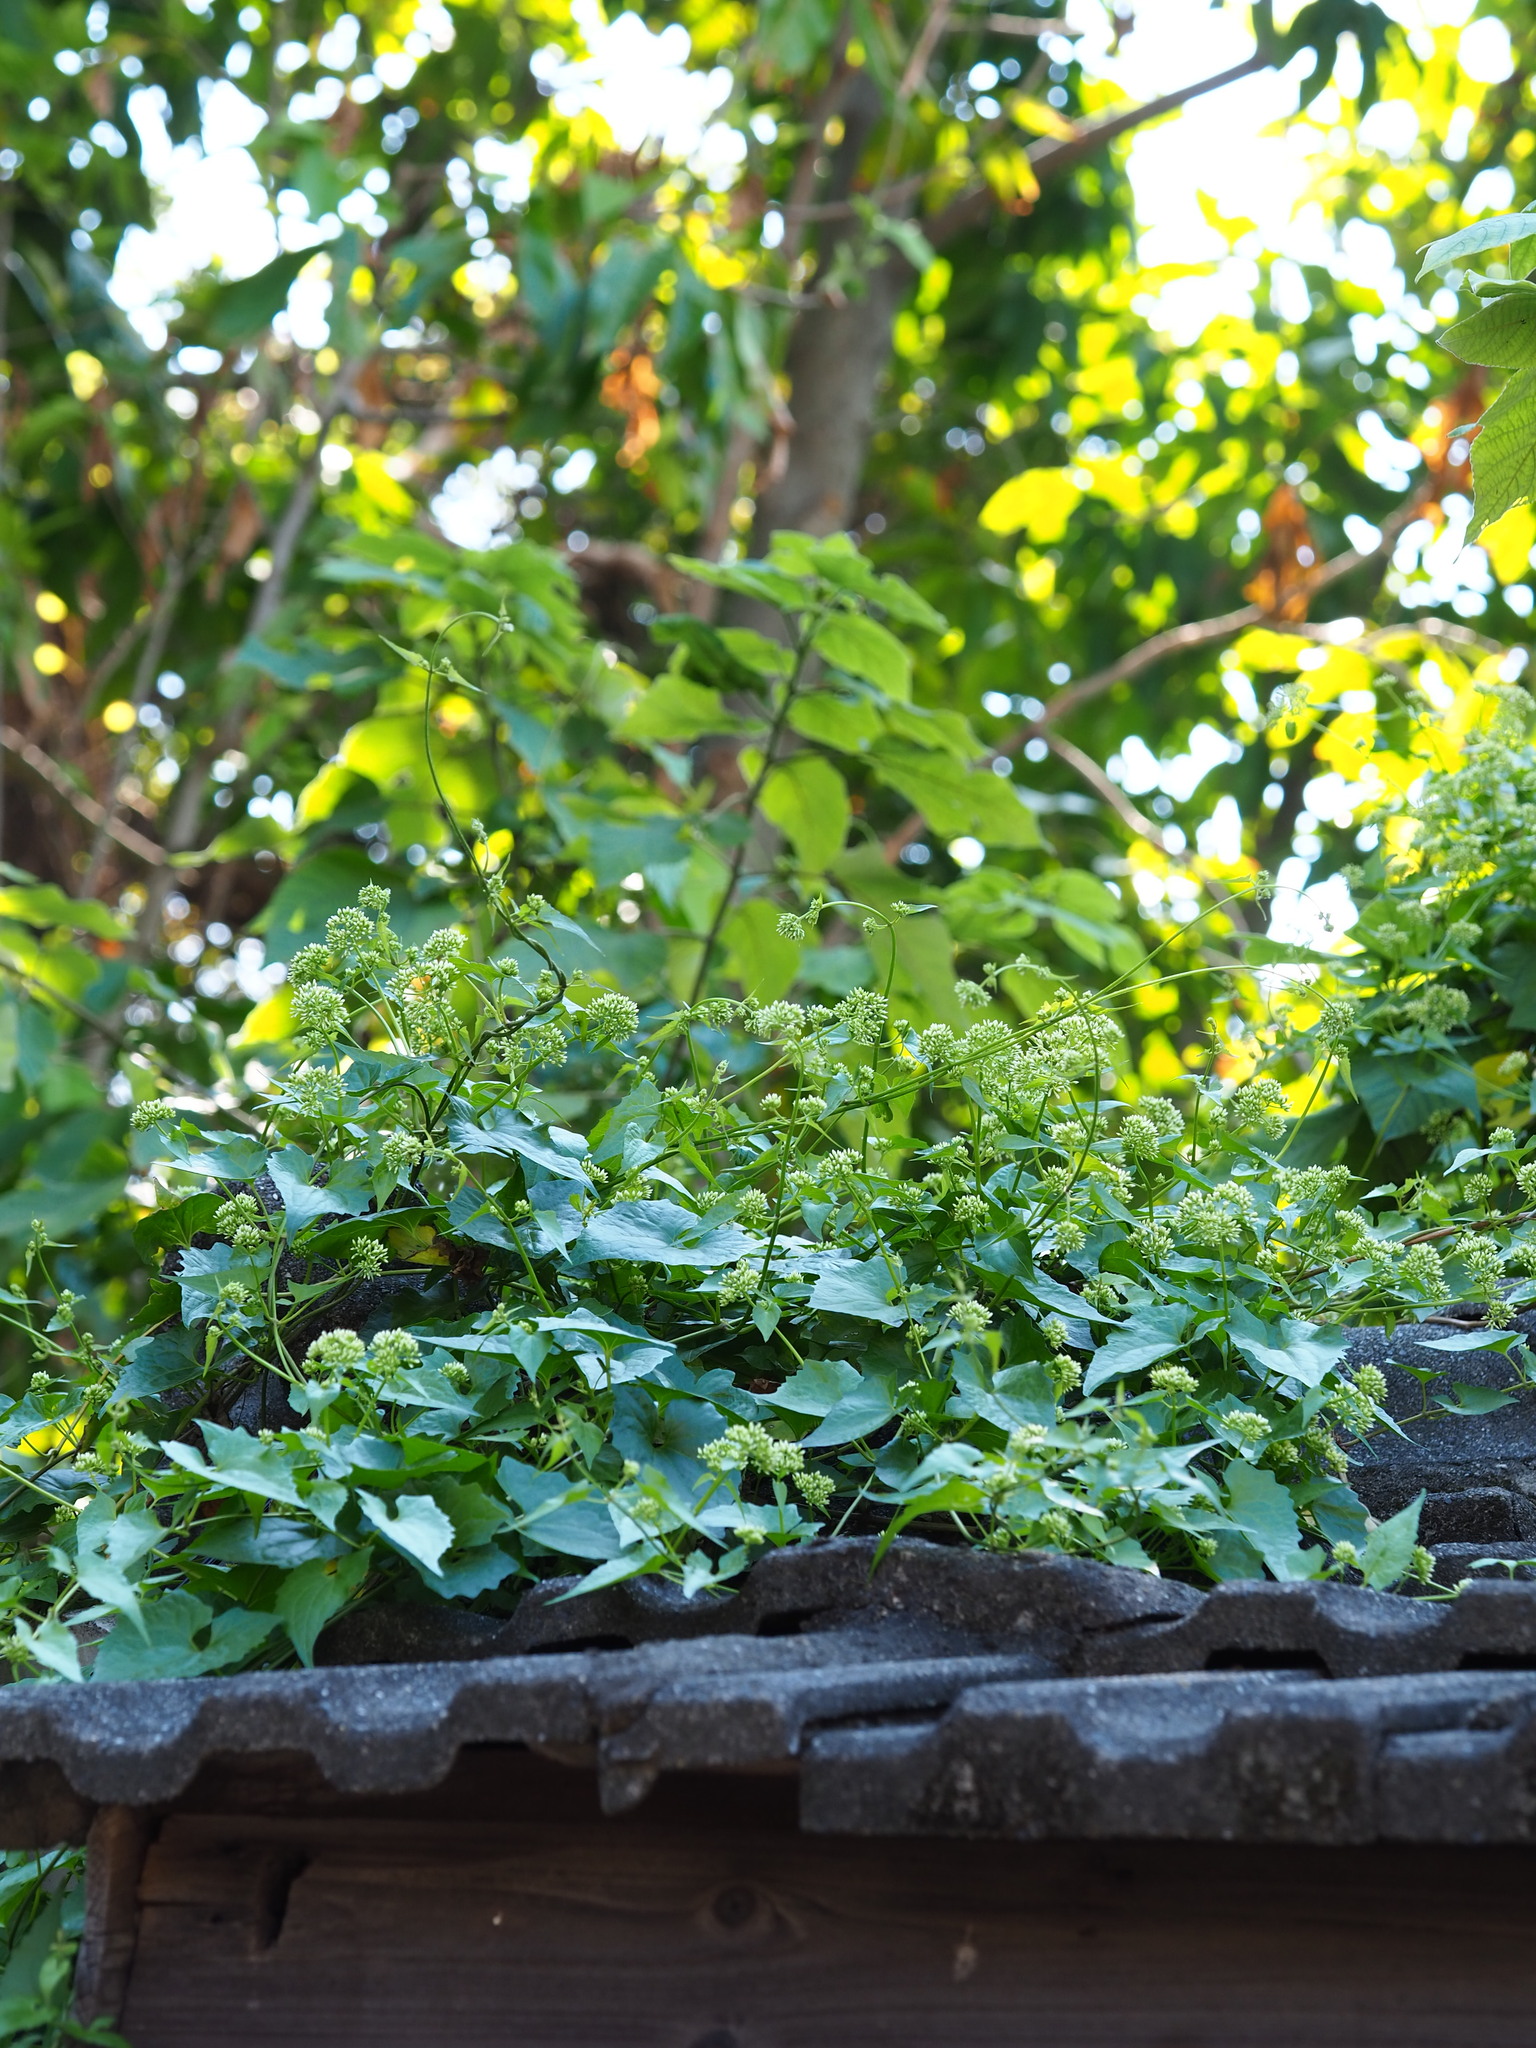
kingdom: Plantae
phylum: Tracheophyta
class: Magnoliopsida
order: Asterales
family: Asteraceae
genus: Mikania
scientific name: Mikania micrantha
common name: Mile-a-minute
